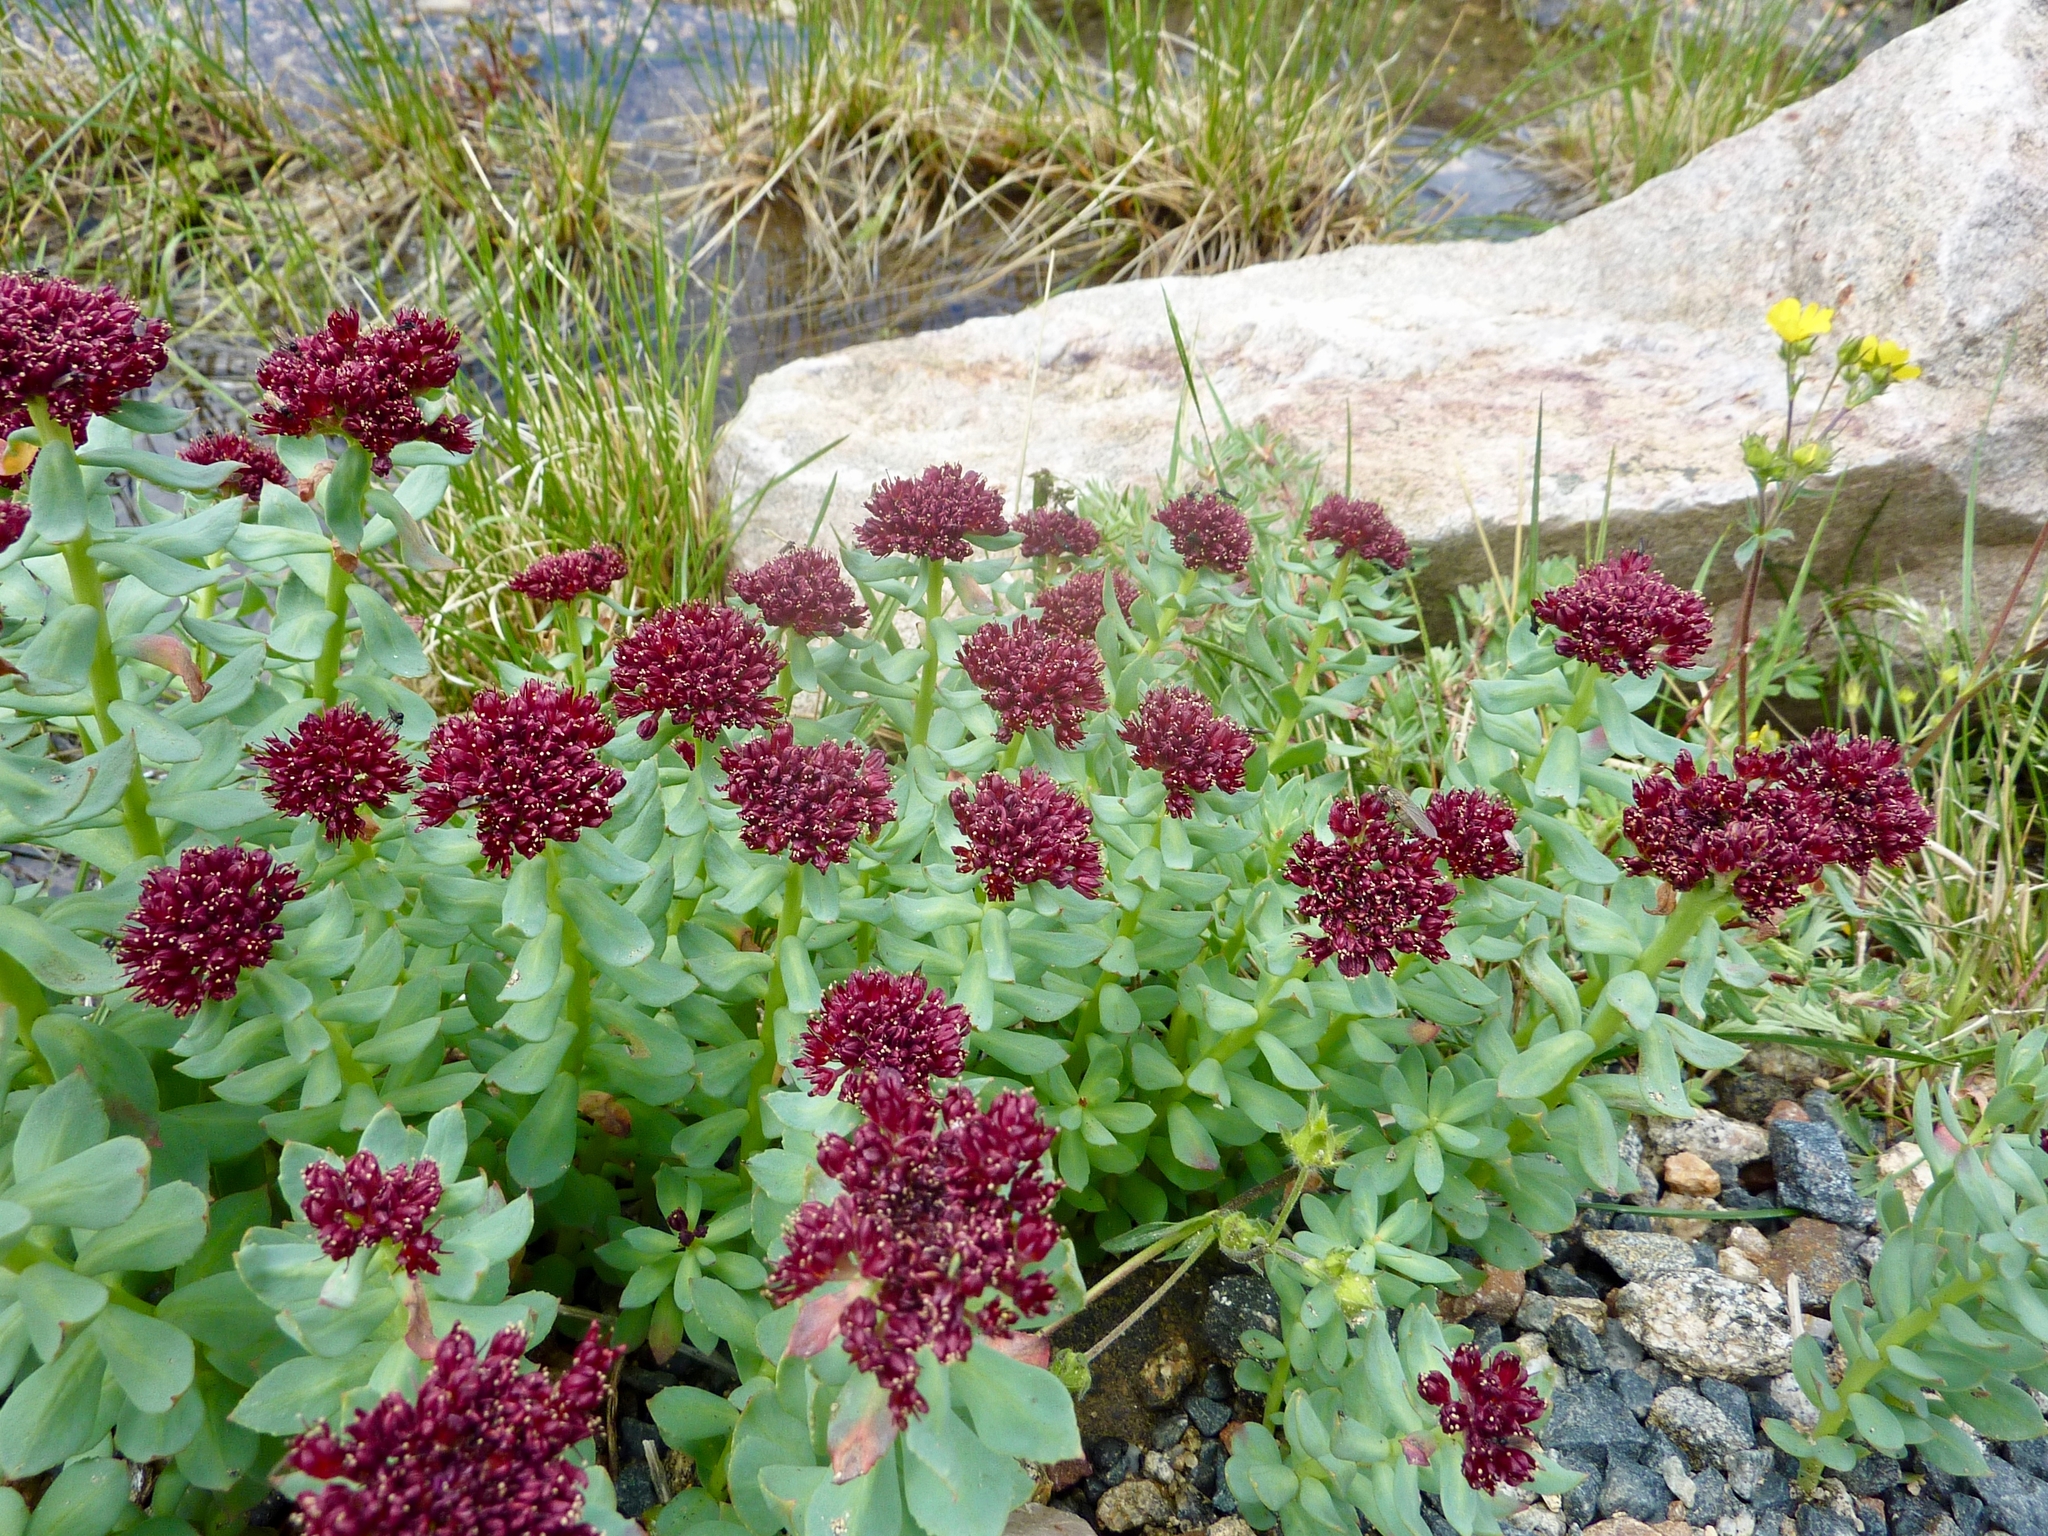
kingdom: Plantae
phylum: Tracheophyta
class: Magnoliopsida
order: Saxifragales
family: Crassulaceae
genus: Rhodiola
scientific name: Rhodiola integrifolia
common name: Western roseroot
